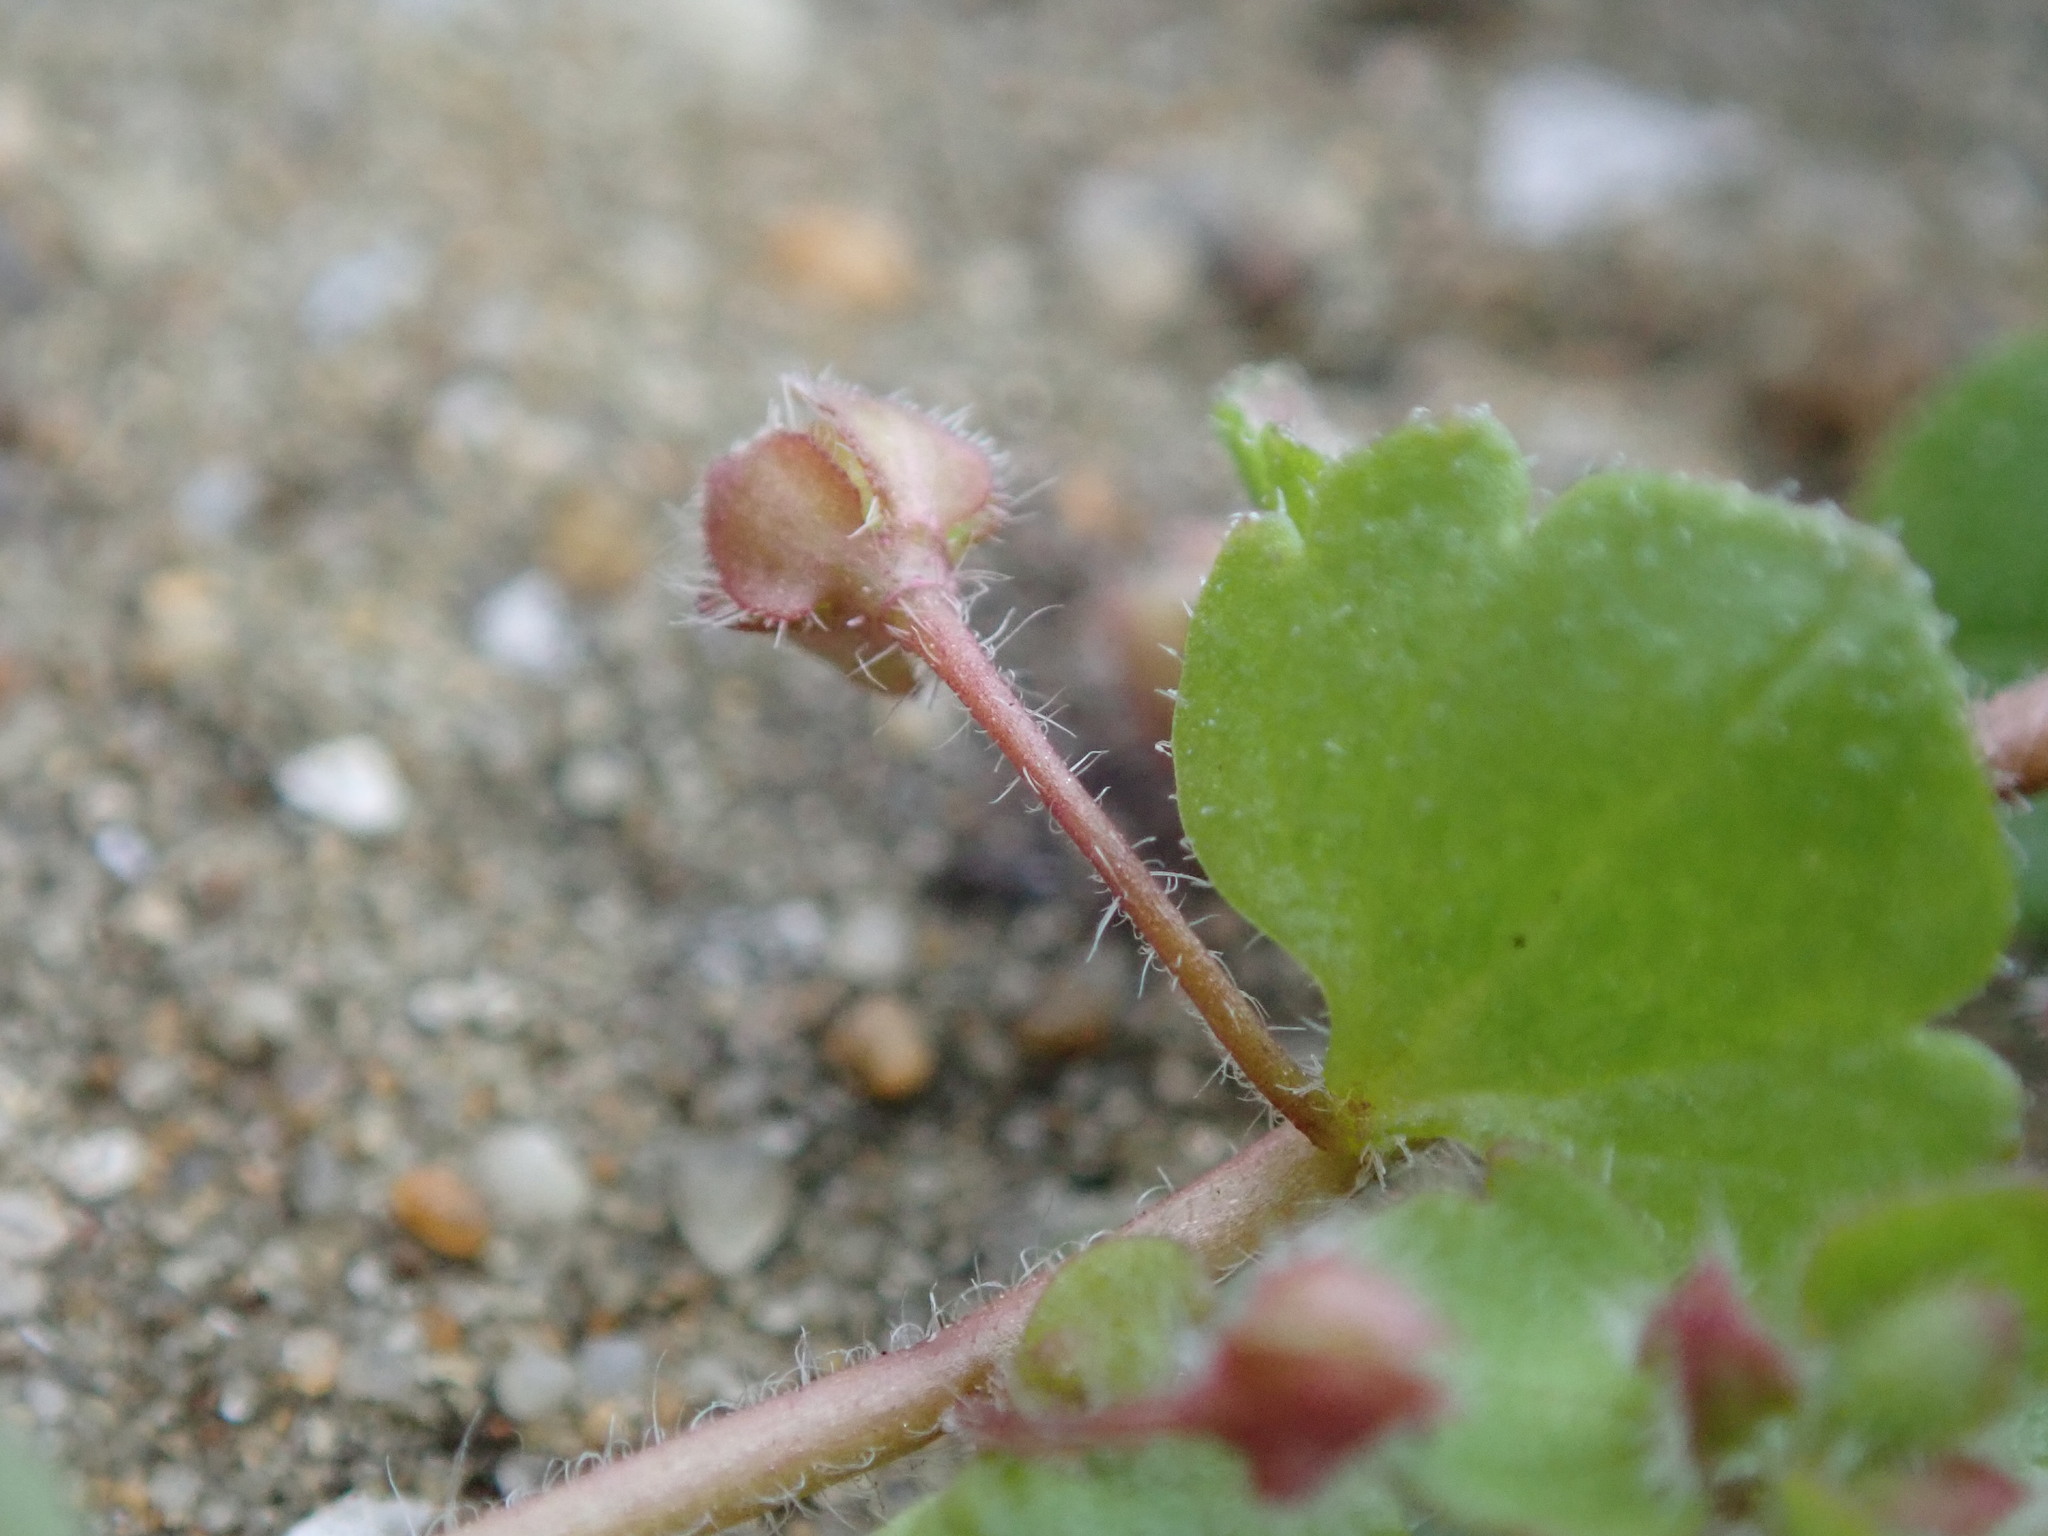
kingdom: Plantae
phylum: Tracheophyta
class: Magnoliopsida
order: Lamiales
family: Plantaginaceae
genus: Veronica
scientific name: Veronica sublobata
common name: False ivy-leaved speedwell
